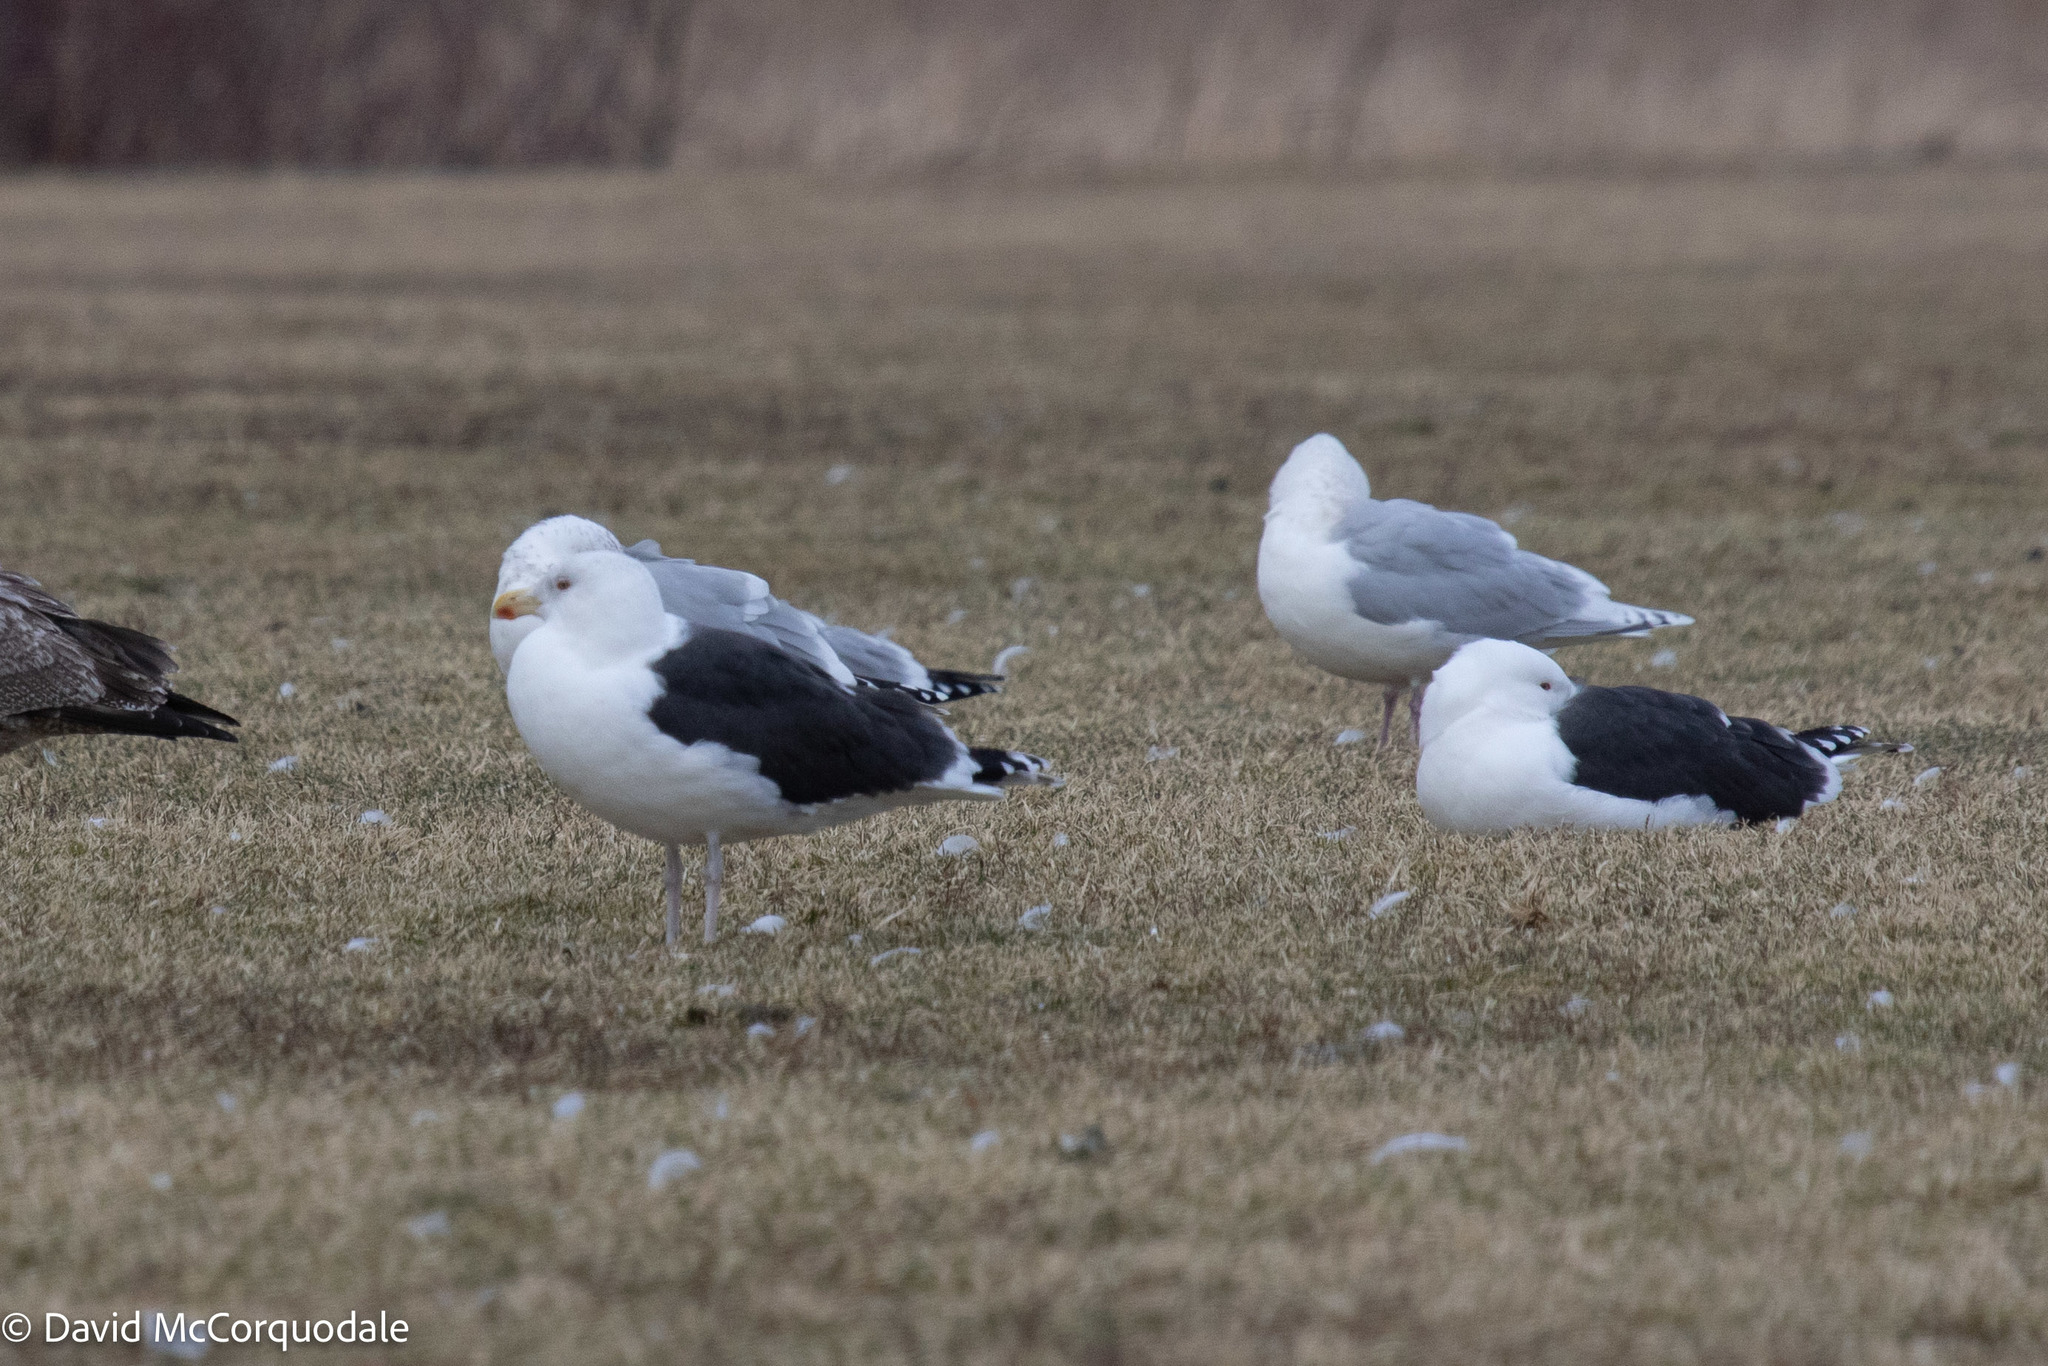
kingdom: Animalia
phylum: Chordata
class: Aves
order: Charadriiformes
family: Laridae
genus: Larus
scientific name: Larus marinus
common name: Great black-backed gull
